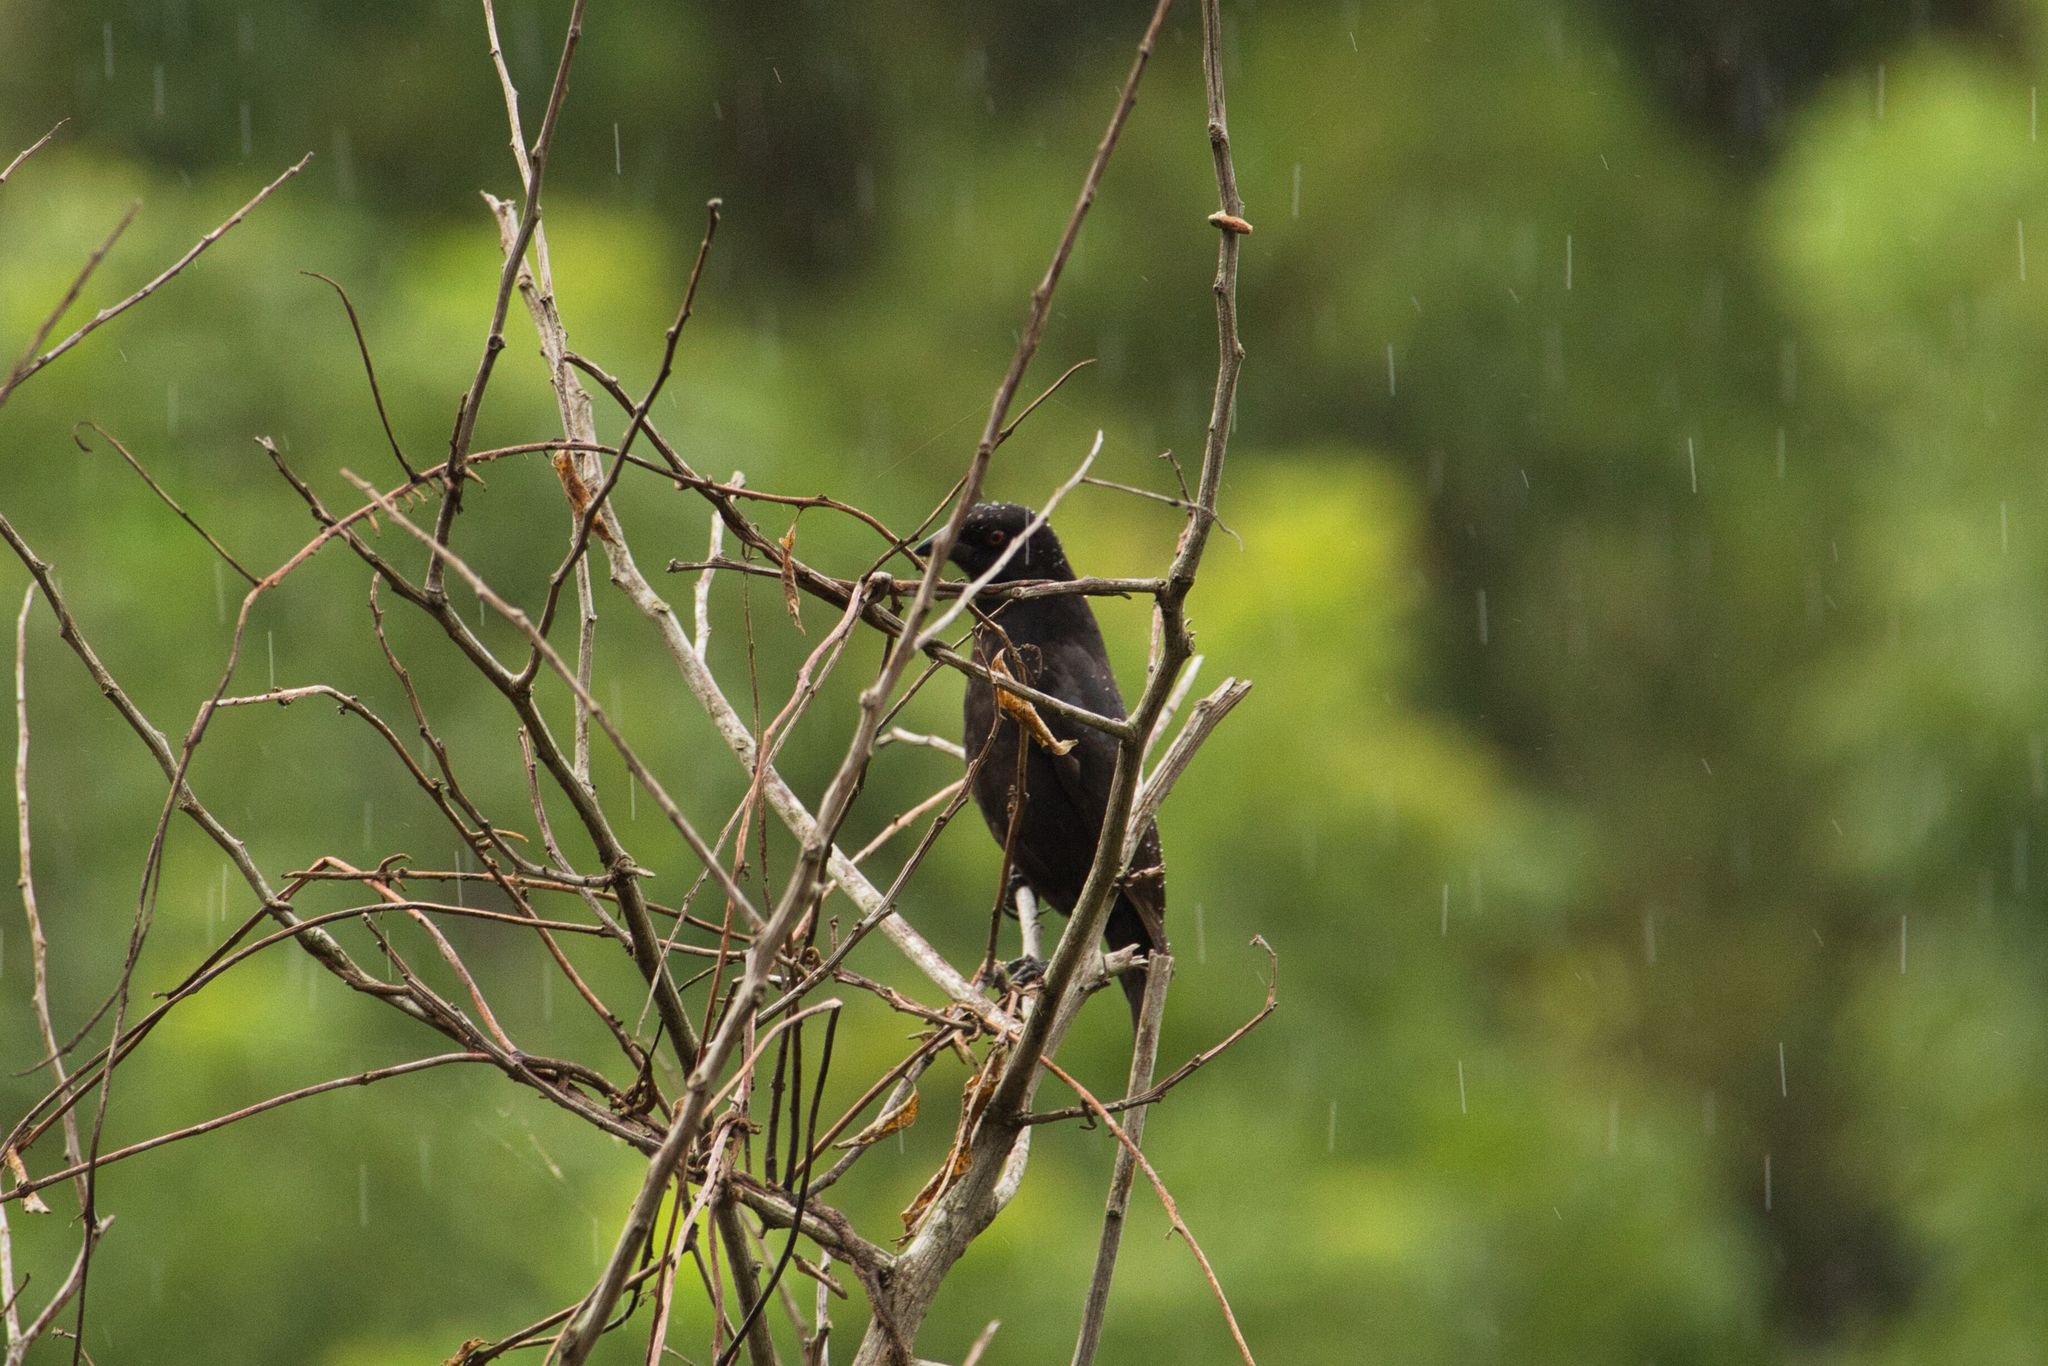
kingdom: Animalia
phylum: Chordata
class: Aves
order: Passeriformes
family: Icteridae
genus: Molothrus
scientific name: Molothrus aeneus
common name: Bronzed cowbird
